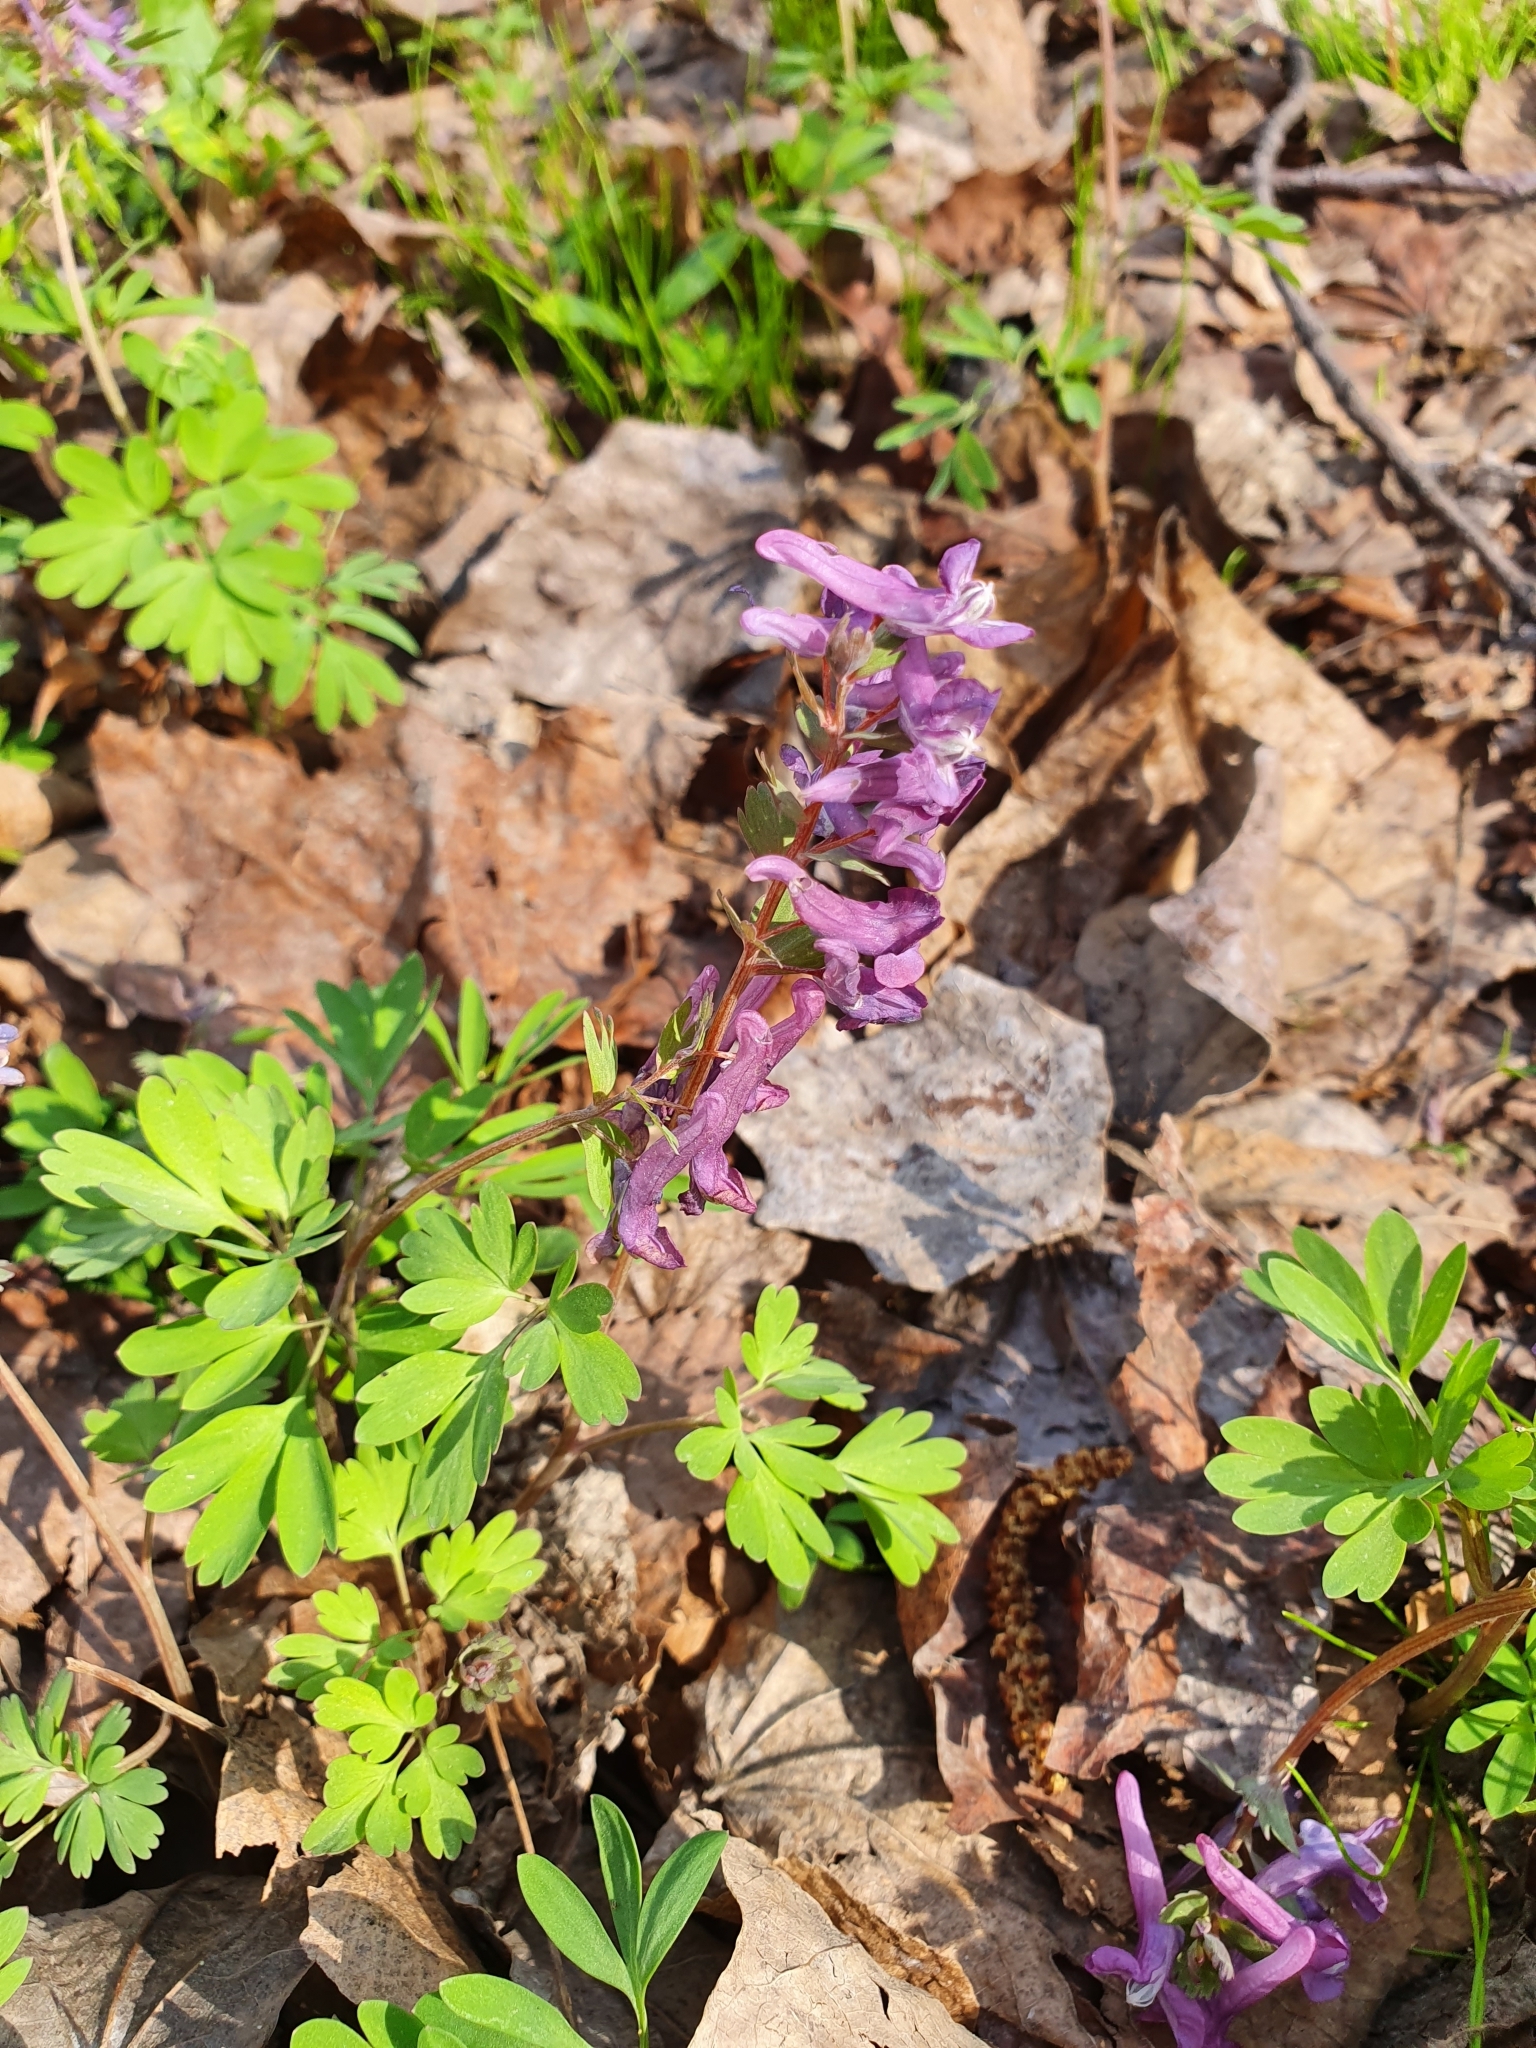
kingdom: Plantae
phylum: Tracheophyta
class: Magnoliopsida
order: Ranunculales
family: Papaveraceae
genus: Corydalis
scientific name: Corydalis solida
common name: Bird-in-a-bush
